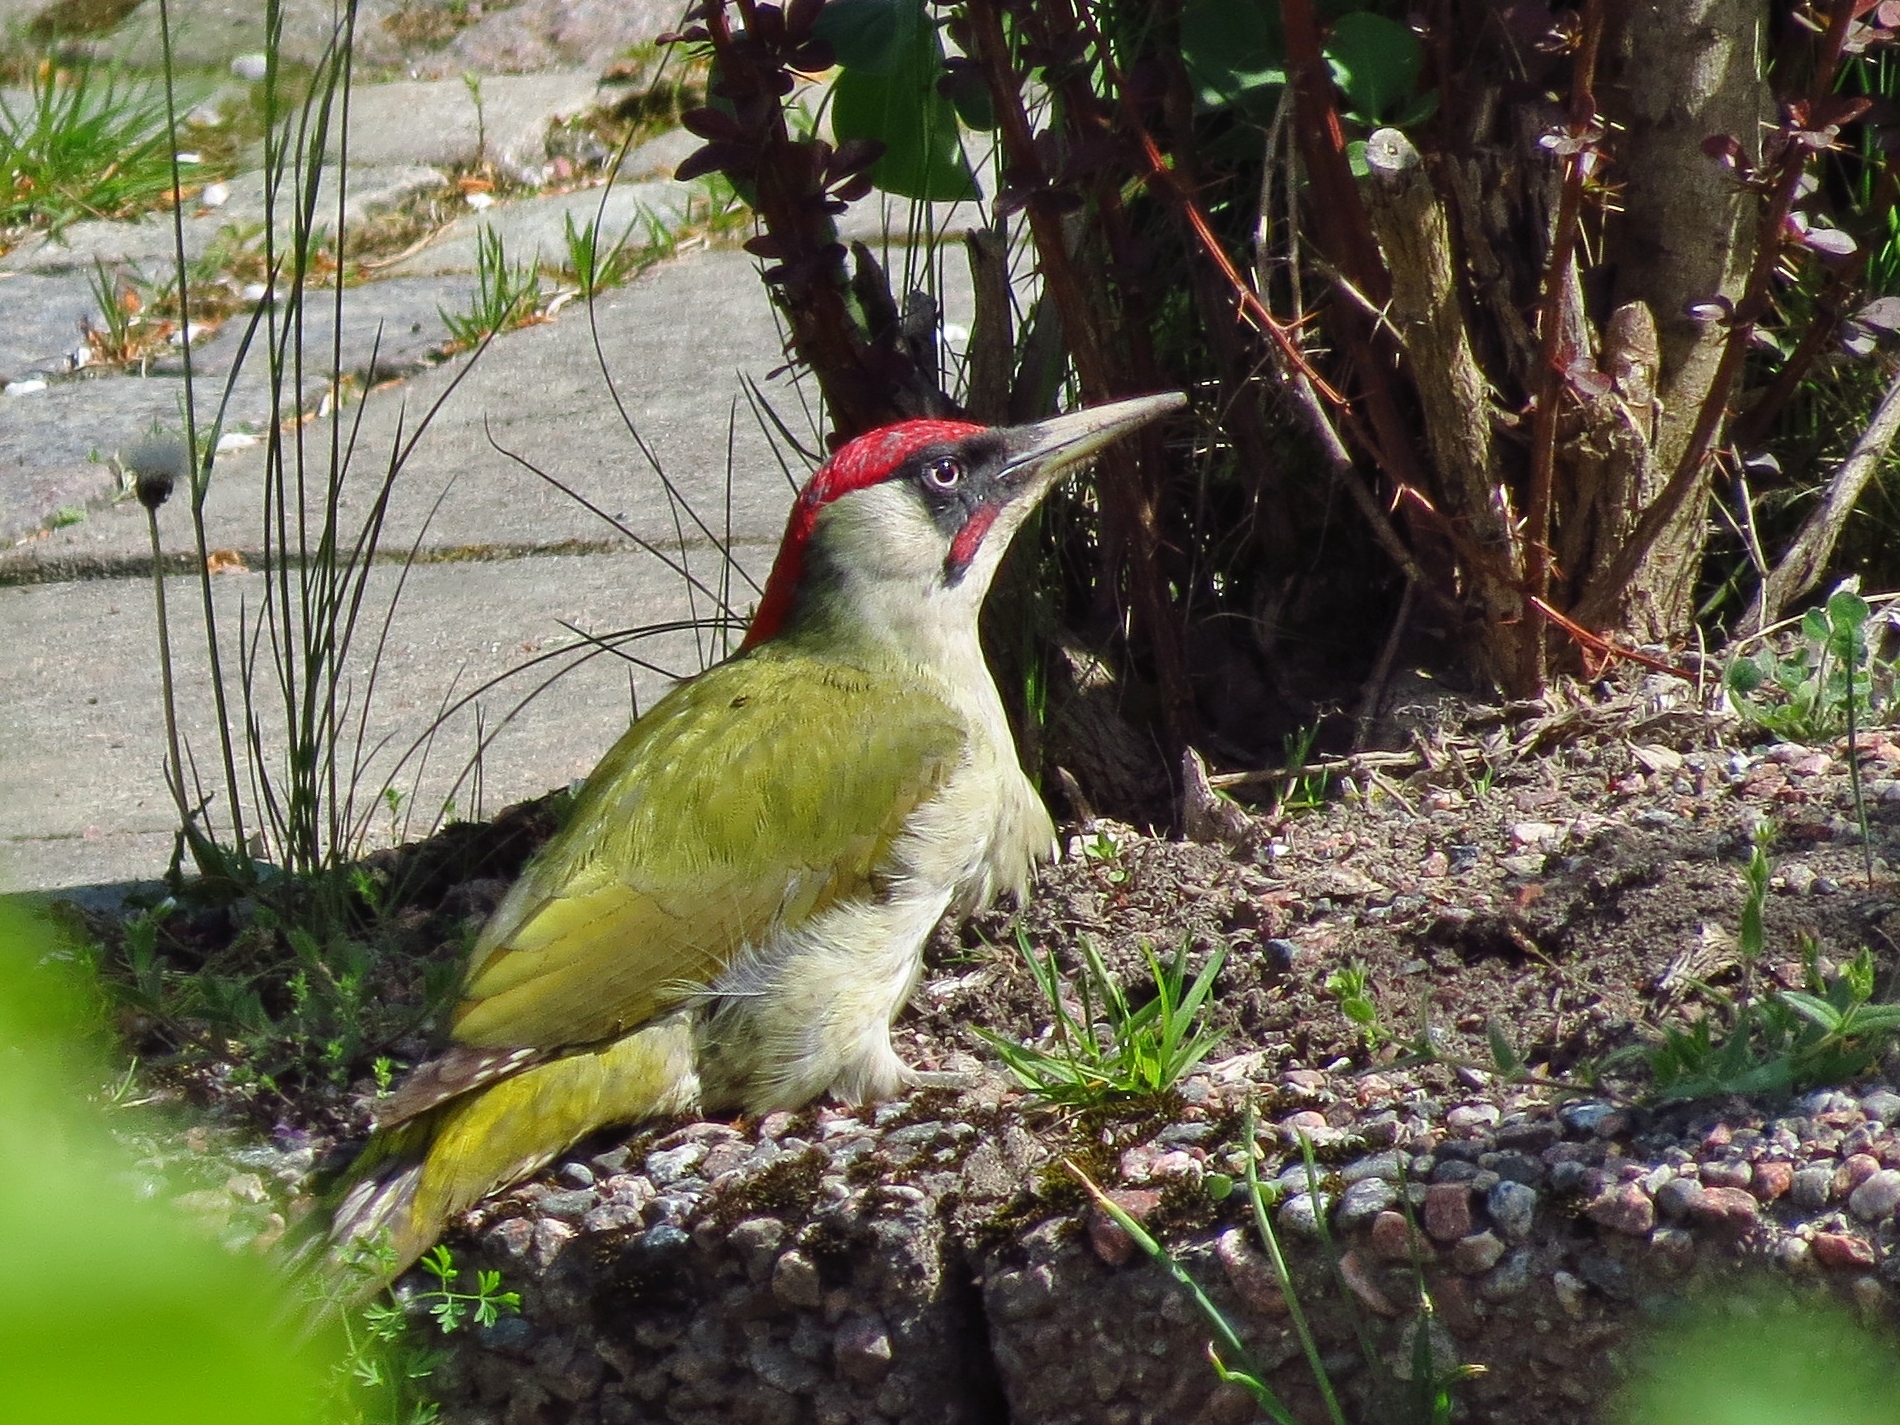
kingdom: Animalia
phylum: Chordata
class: Aves
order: Piciformes
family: Picidae
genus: Picus
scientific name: Picus viridis
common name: European green woodpecker
